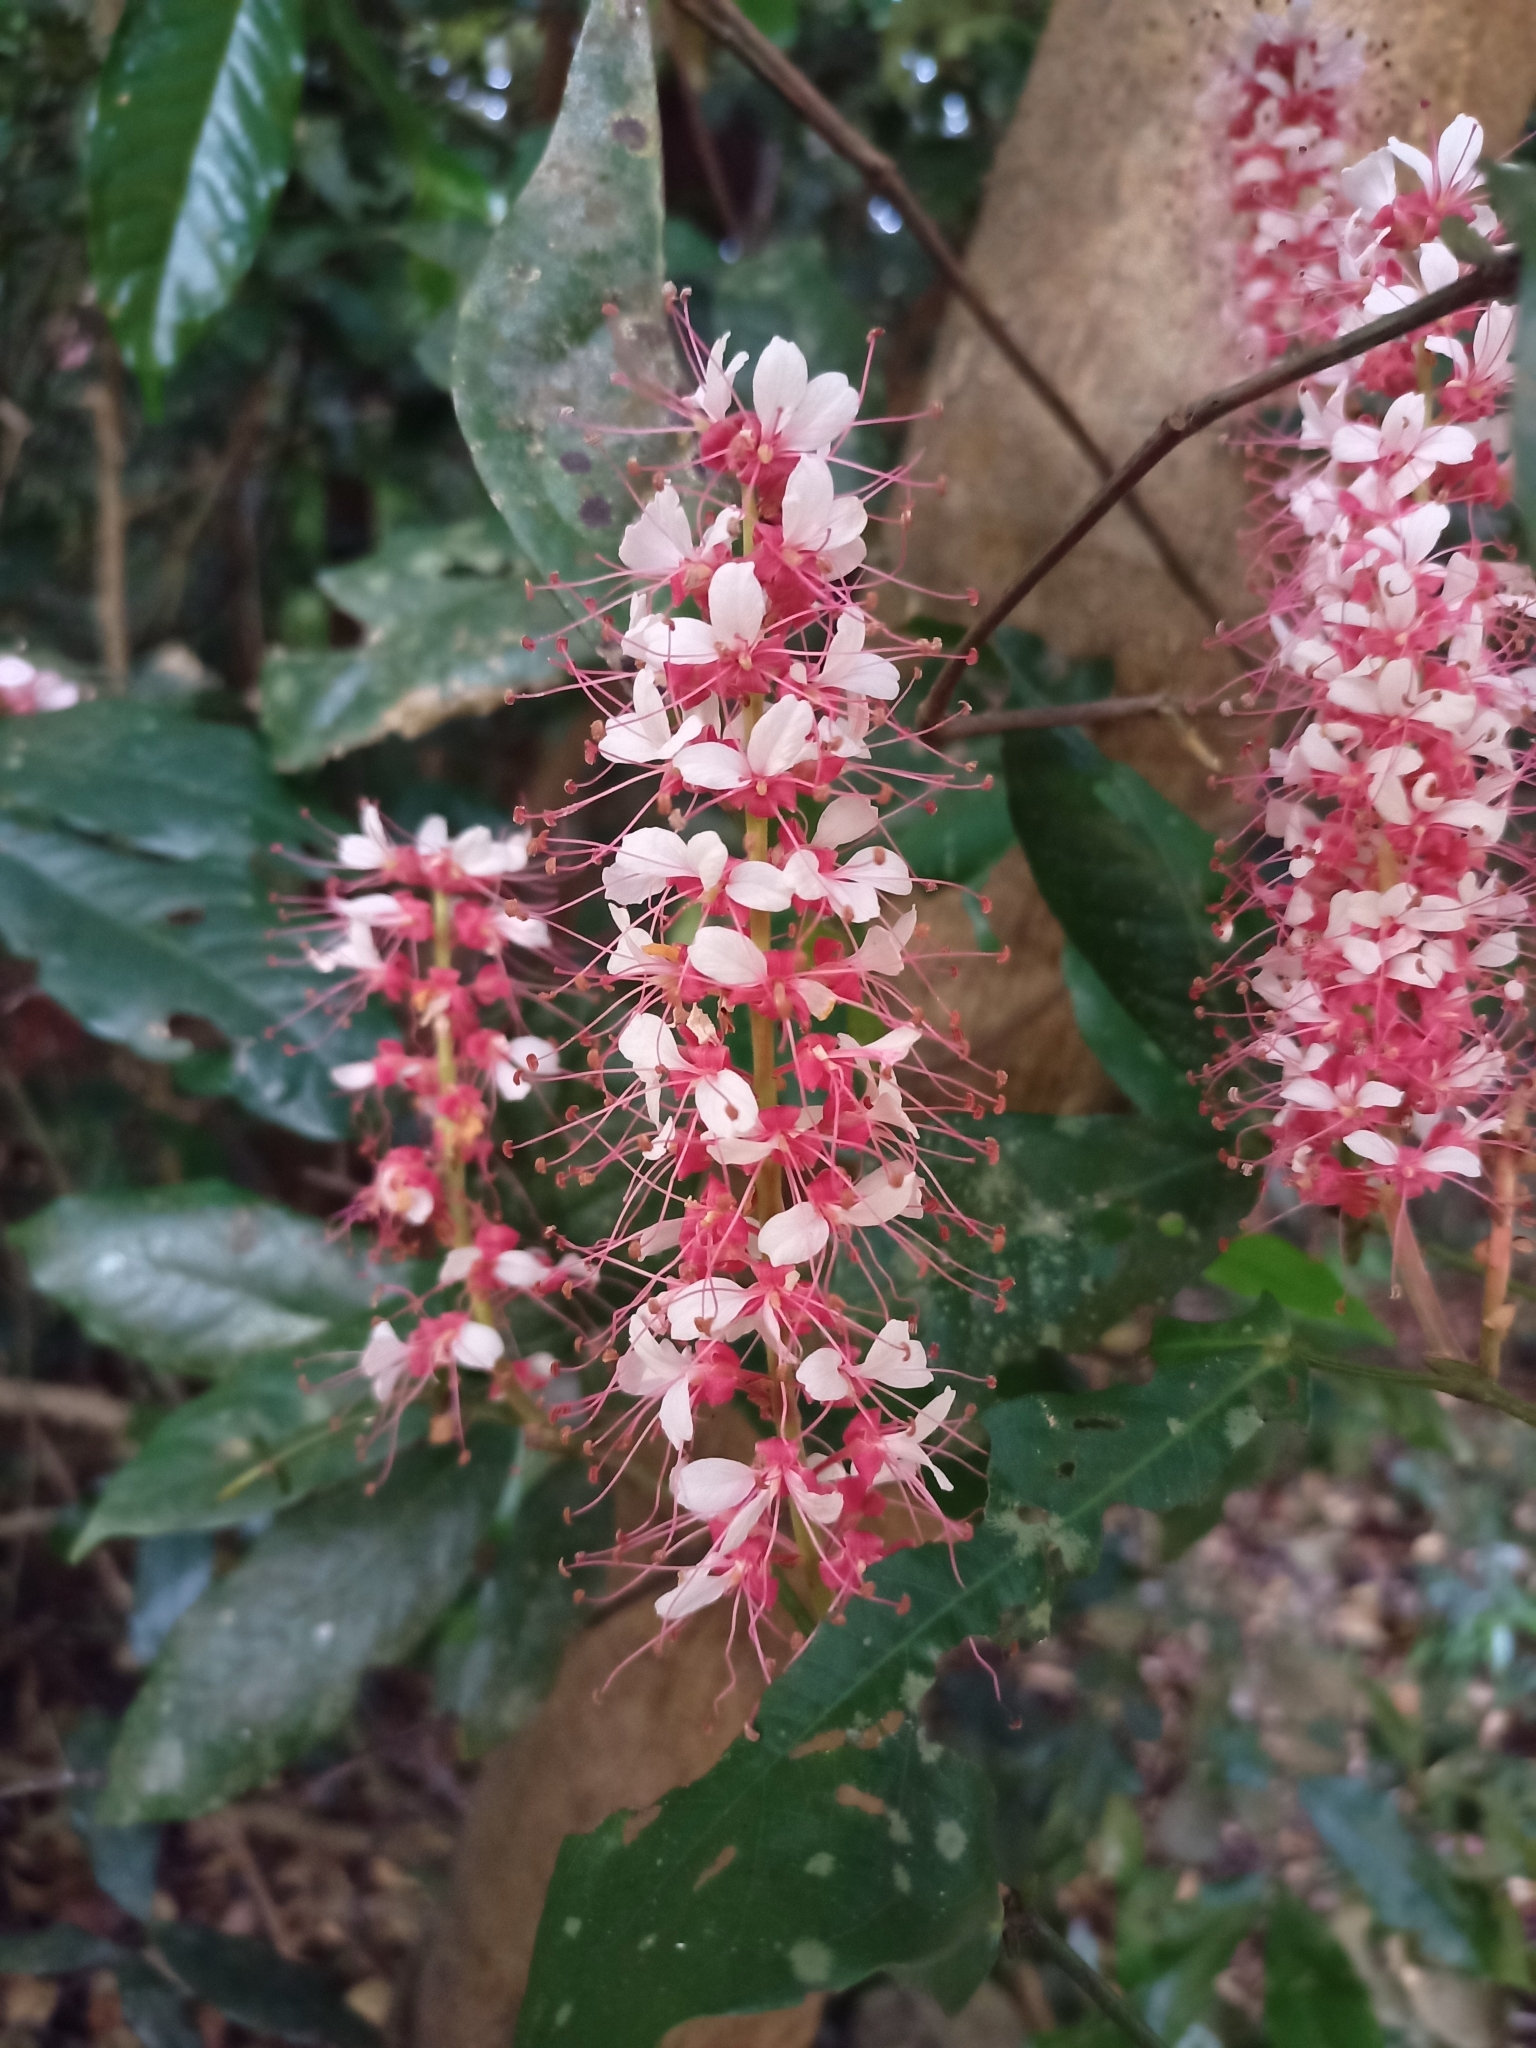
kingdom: Plantae
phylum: Tracheophyta
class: Magnoliopsida
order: Fabales
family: Fabaceae
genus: Humboldtia
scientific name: Humboldtia brunonis
